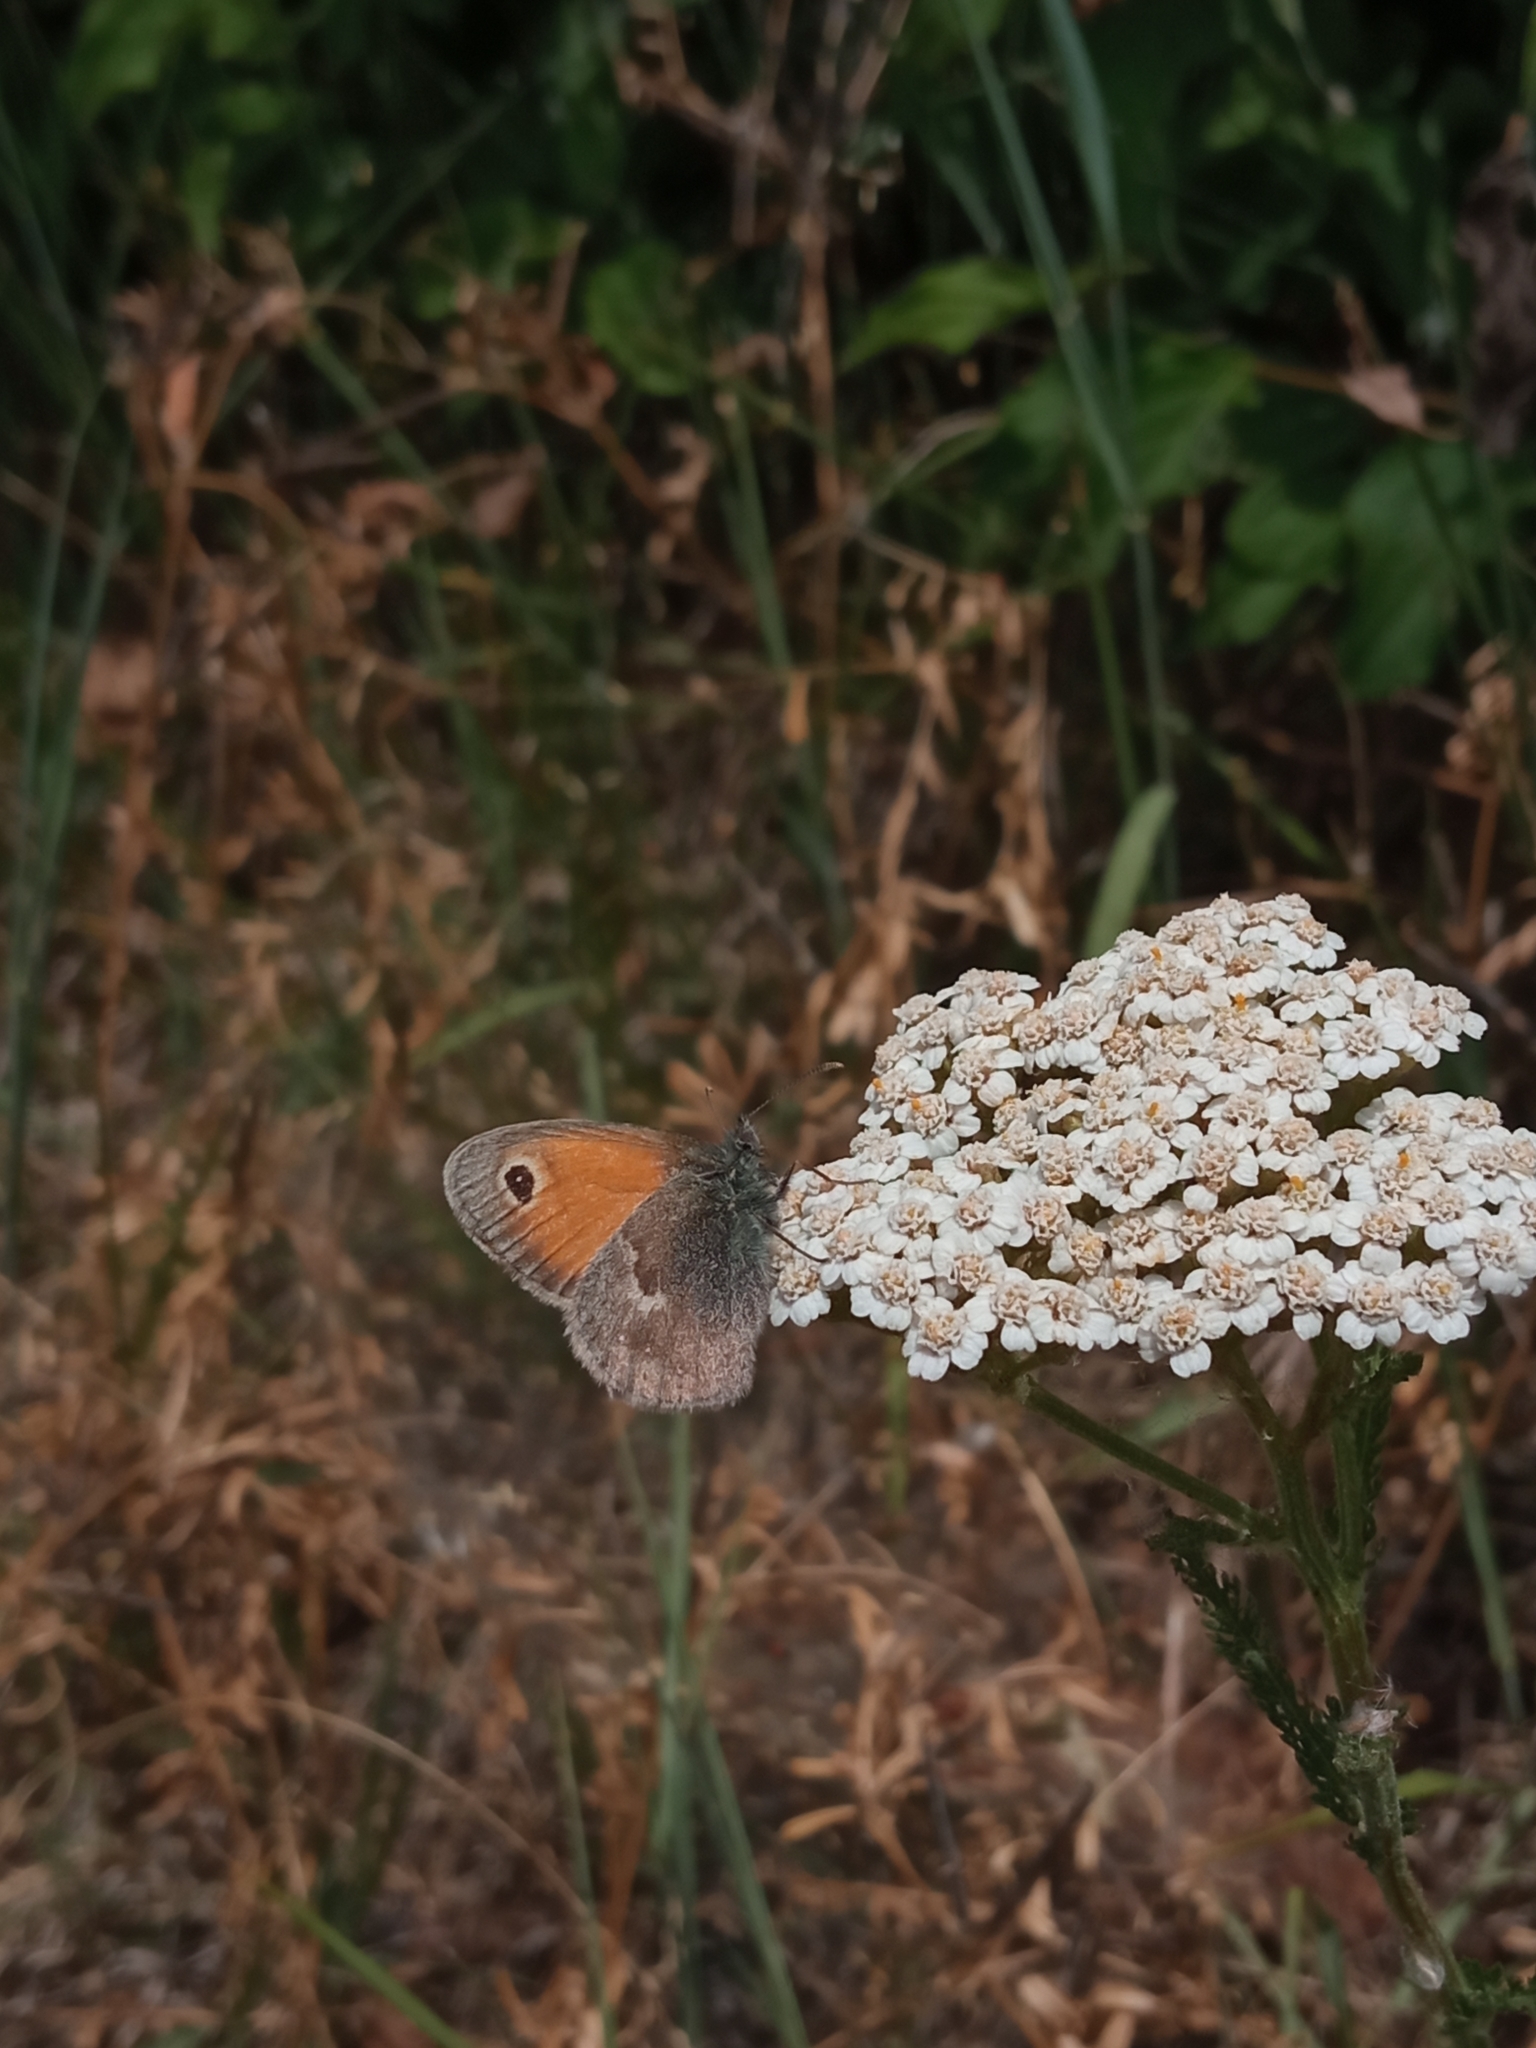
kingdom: Animalia
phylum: Arthropoda
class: Insecta
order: Lepidoptera
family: Nymphalidae
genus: Coenonympha
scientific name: Coenonympha pamphilus
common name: Small heath
